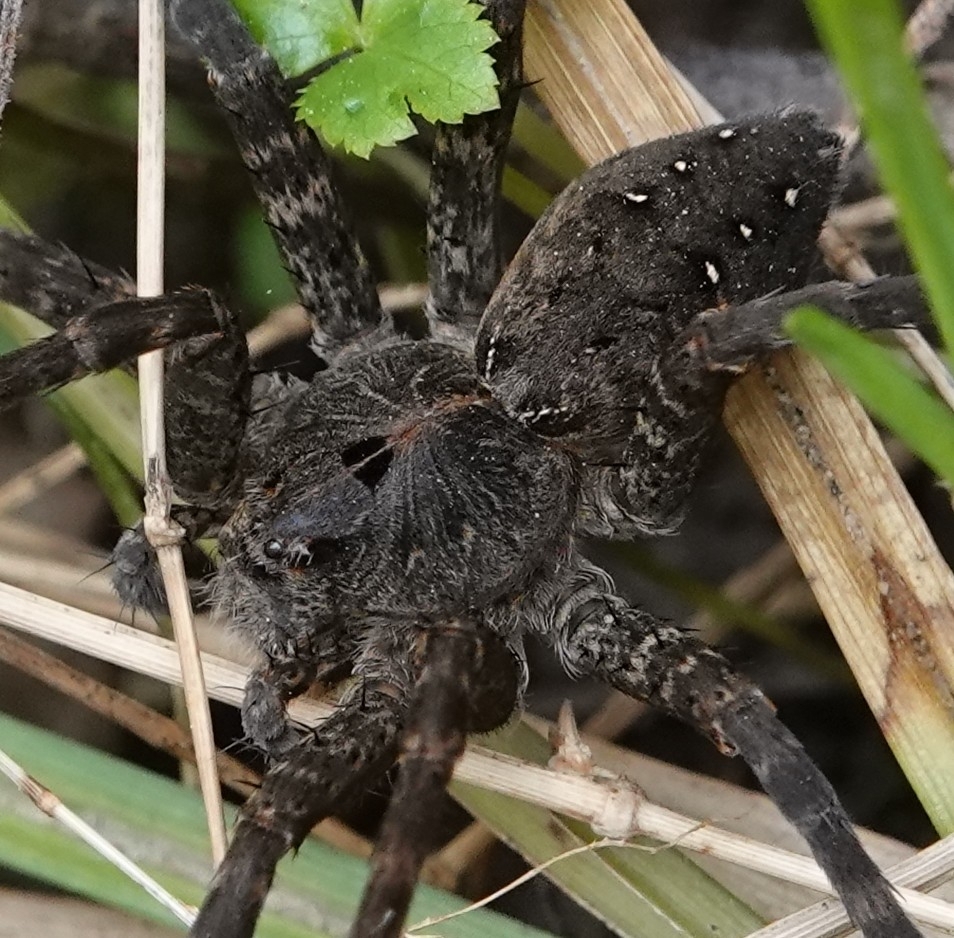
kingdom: Animalia
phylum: Arthropoda
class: Arachnida
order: Araneae
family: Pisauridae
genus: Dolomedes
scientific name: Dolomedes vittatus
